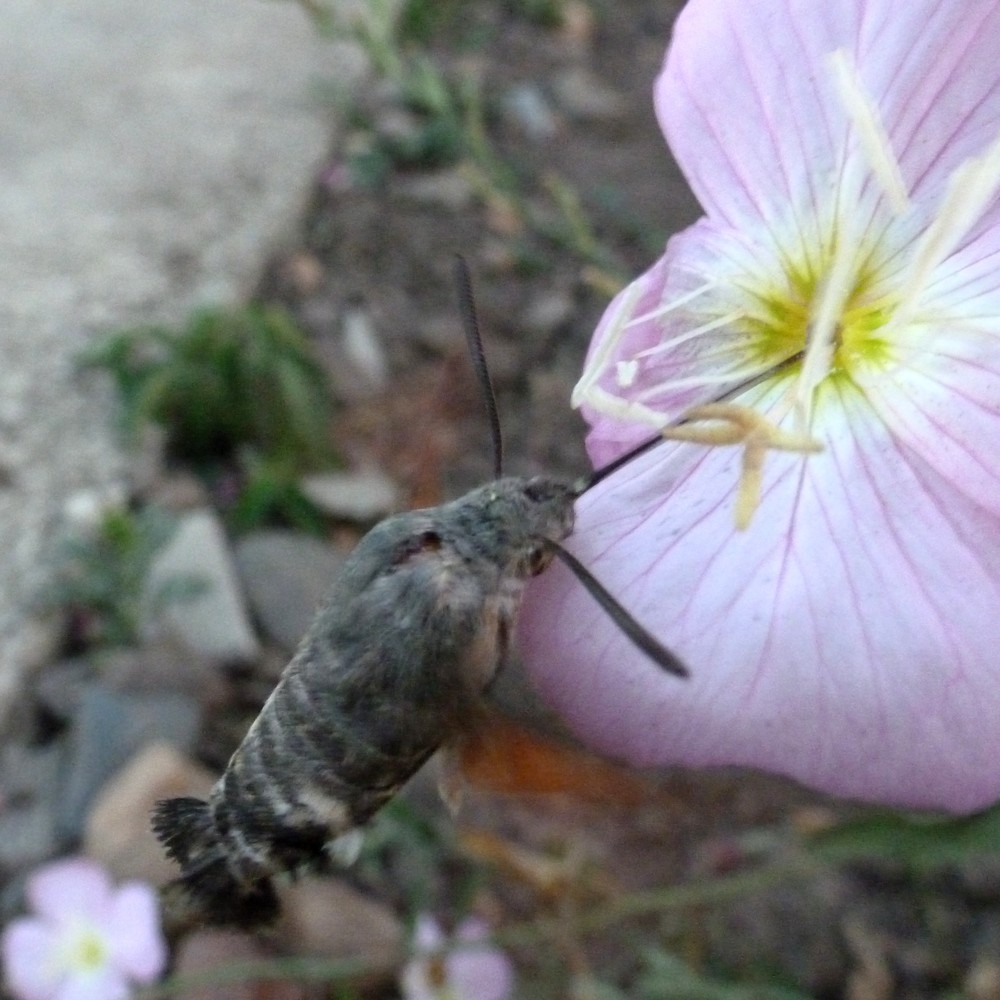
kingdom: Animalia
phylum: Arthropoda
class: Insecta
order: Lepidoptera
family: Sphingidae
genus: Macroglossum
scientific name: Macroglossum stellatarum
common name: Humming-bird hawk-moth
